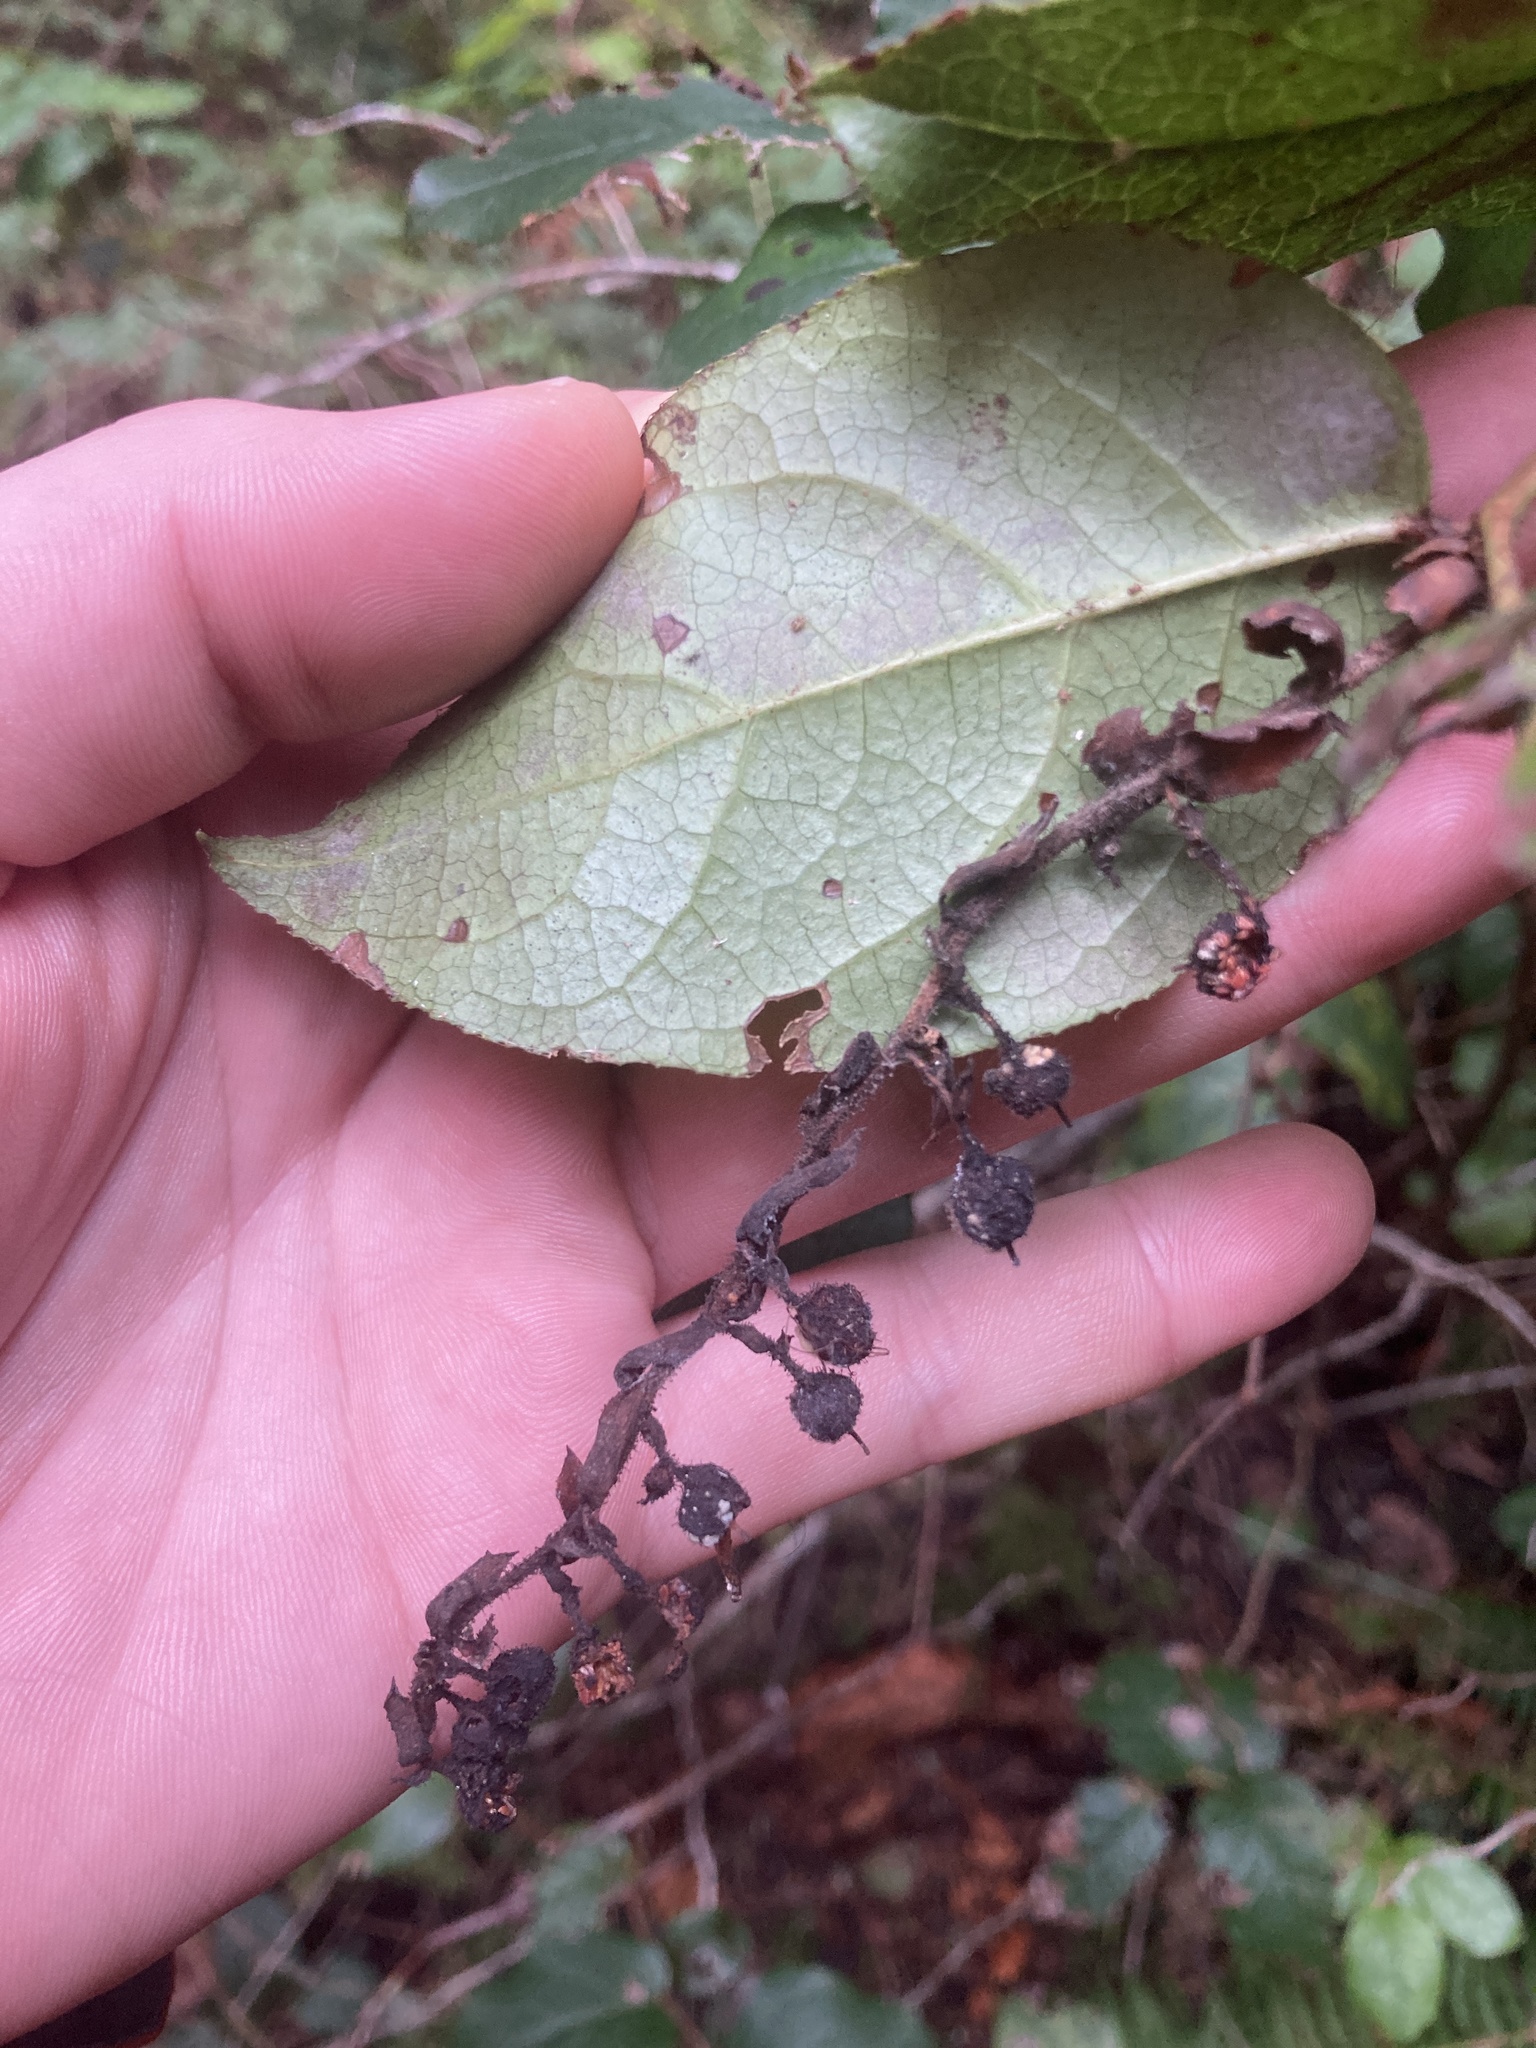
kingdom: Plantae
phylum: Tracheophyta
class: Magnoliopsida
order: Ericales
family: Ericaceae
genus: Gaultheria
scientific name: Gaultheria shallon
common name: Shallon
